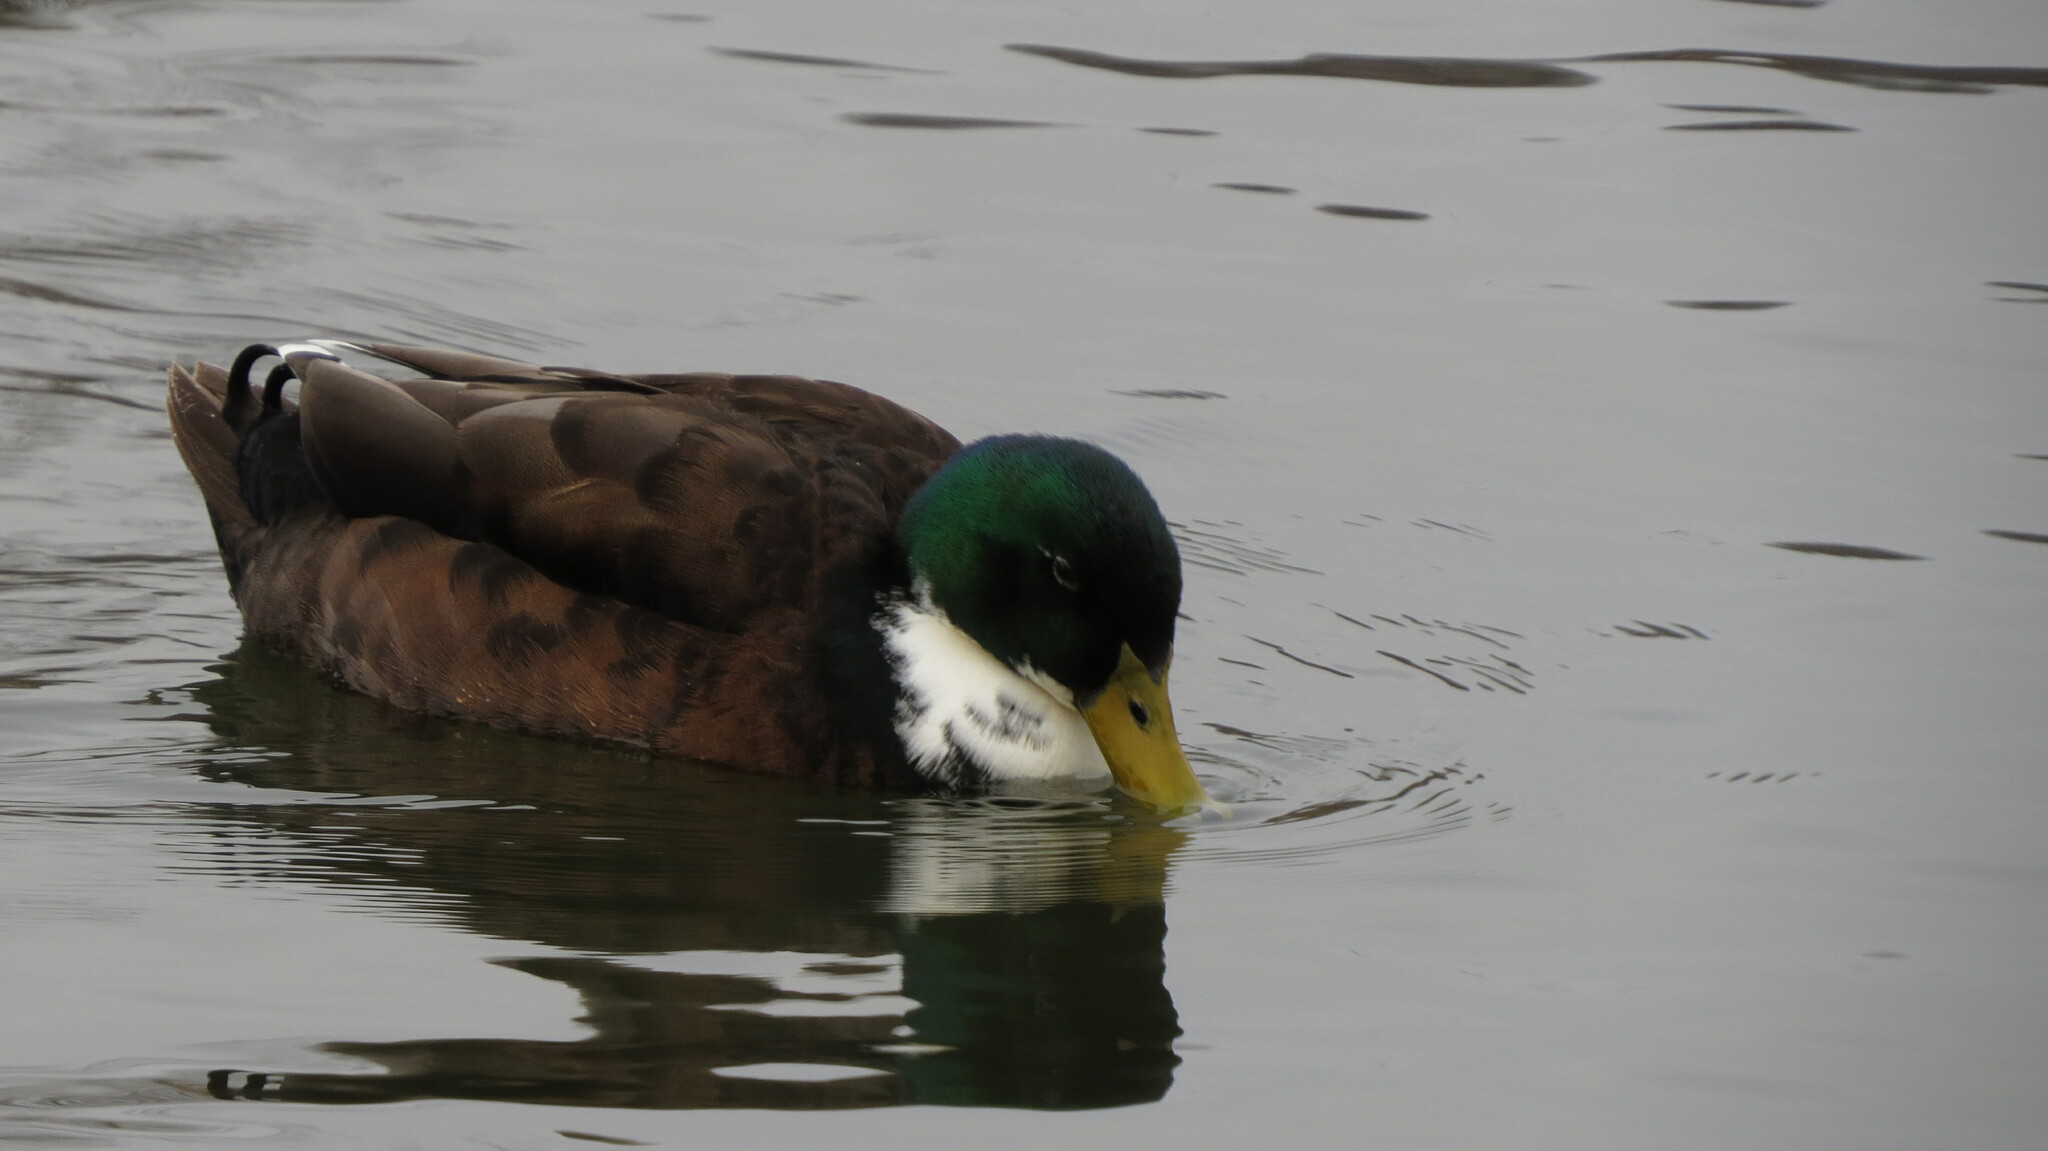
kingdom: Animalia
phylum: Chordata
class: Aves
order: Anseriformes
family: Anatidae
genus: Anas
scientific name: Anas platyrhynchos
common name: Mallard
